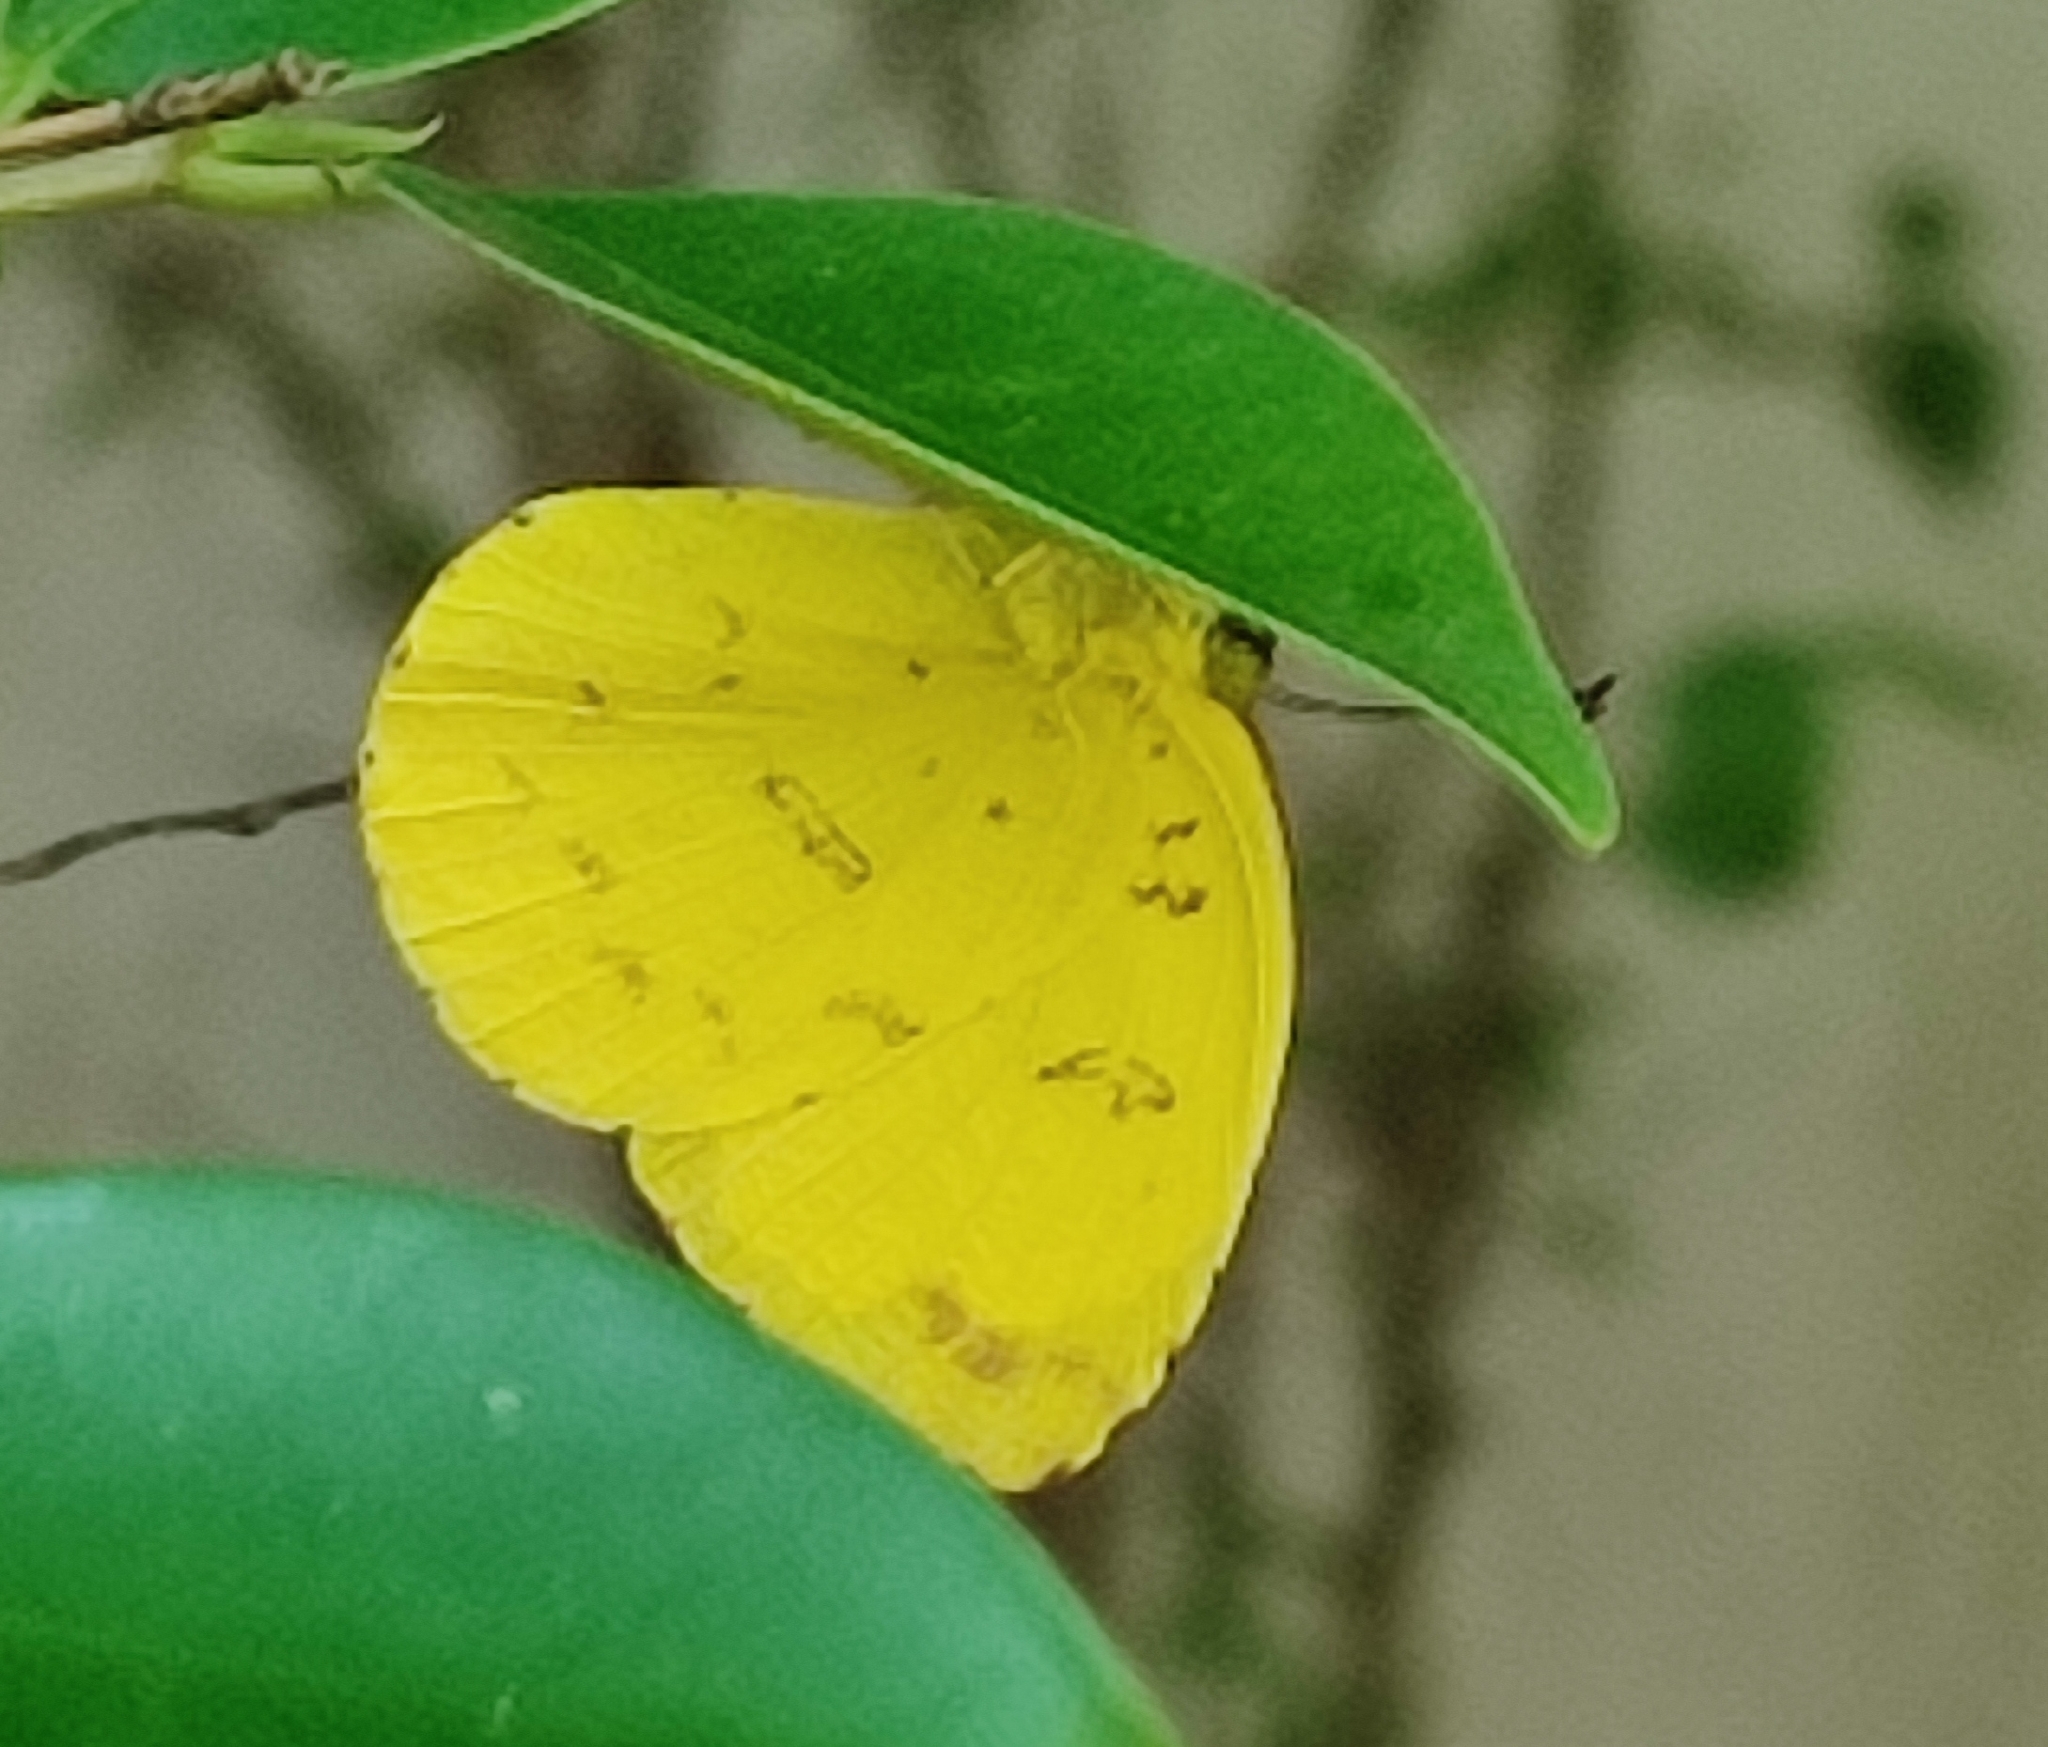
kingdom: Animalia
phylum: Arthropoda
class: Insecta
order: Lepidoptera
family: Pieridae
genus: Eurema
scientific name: Eurema blanda
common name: Three-spot grass yellow
